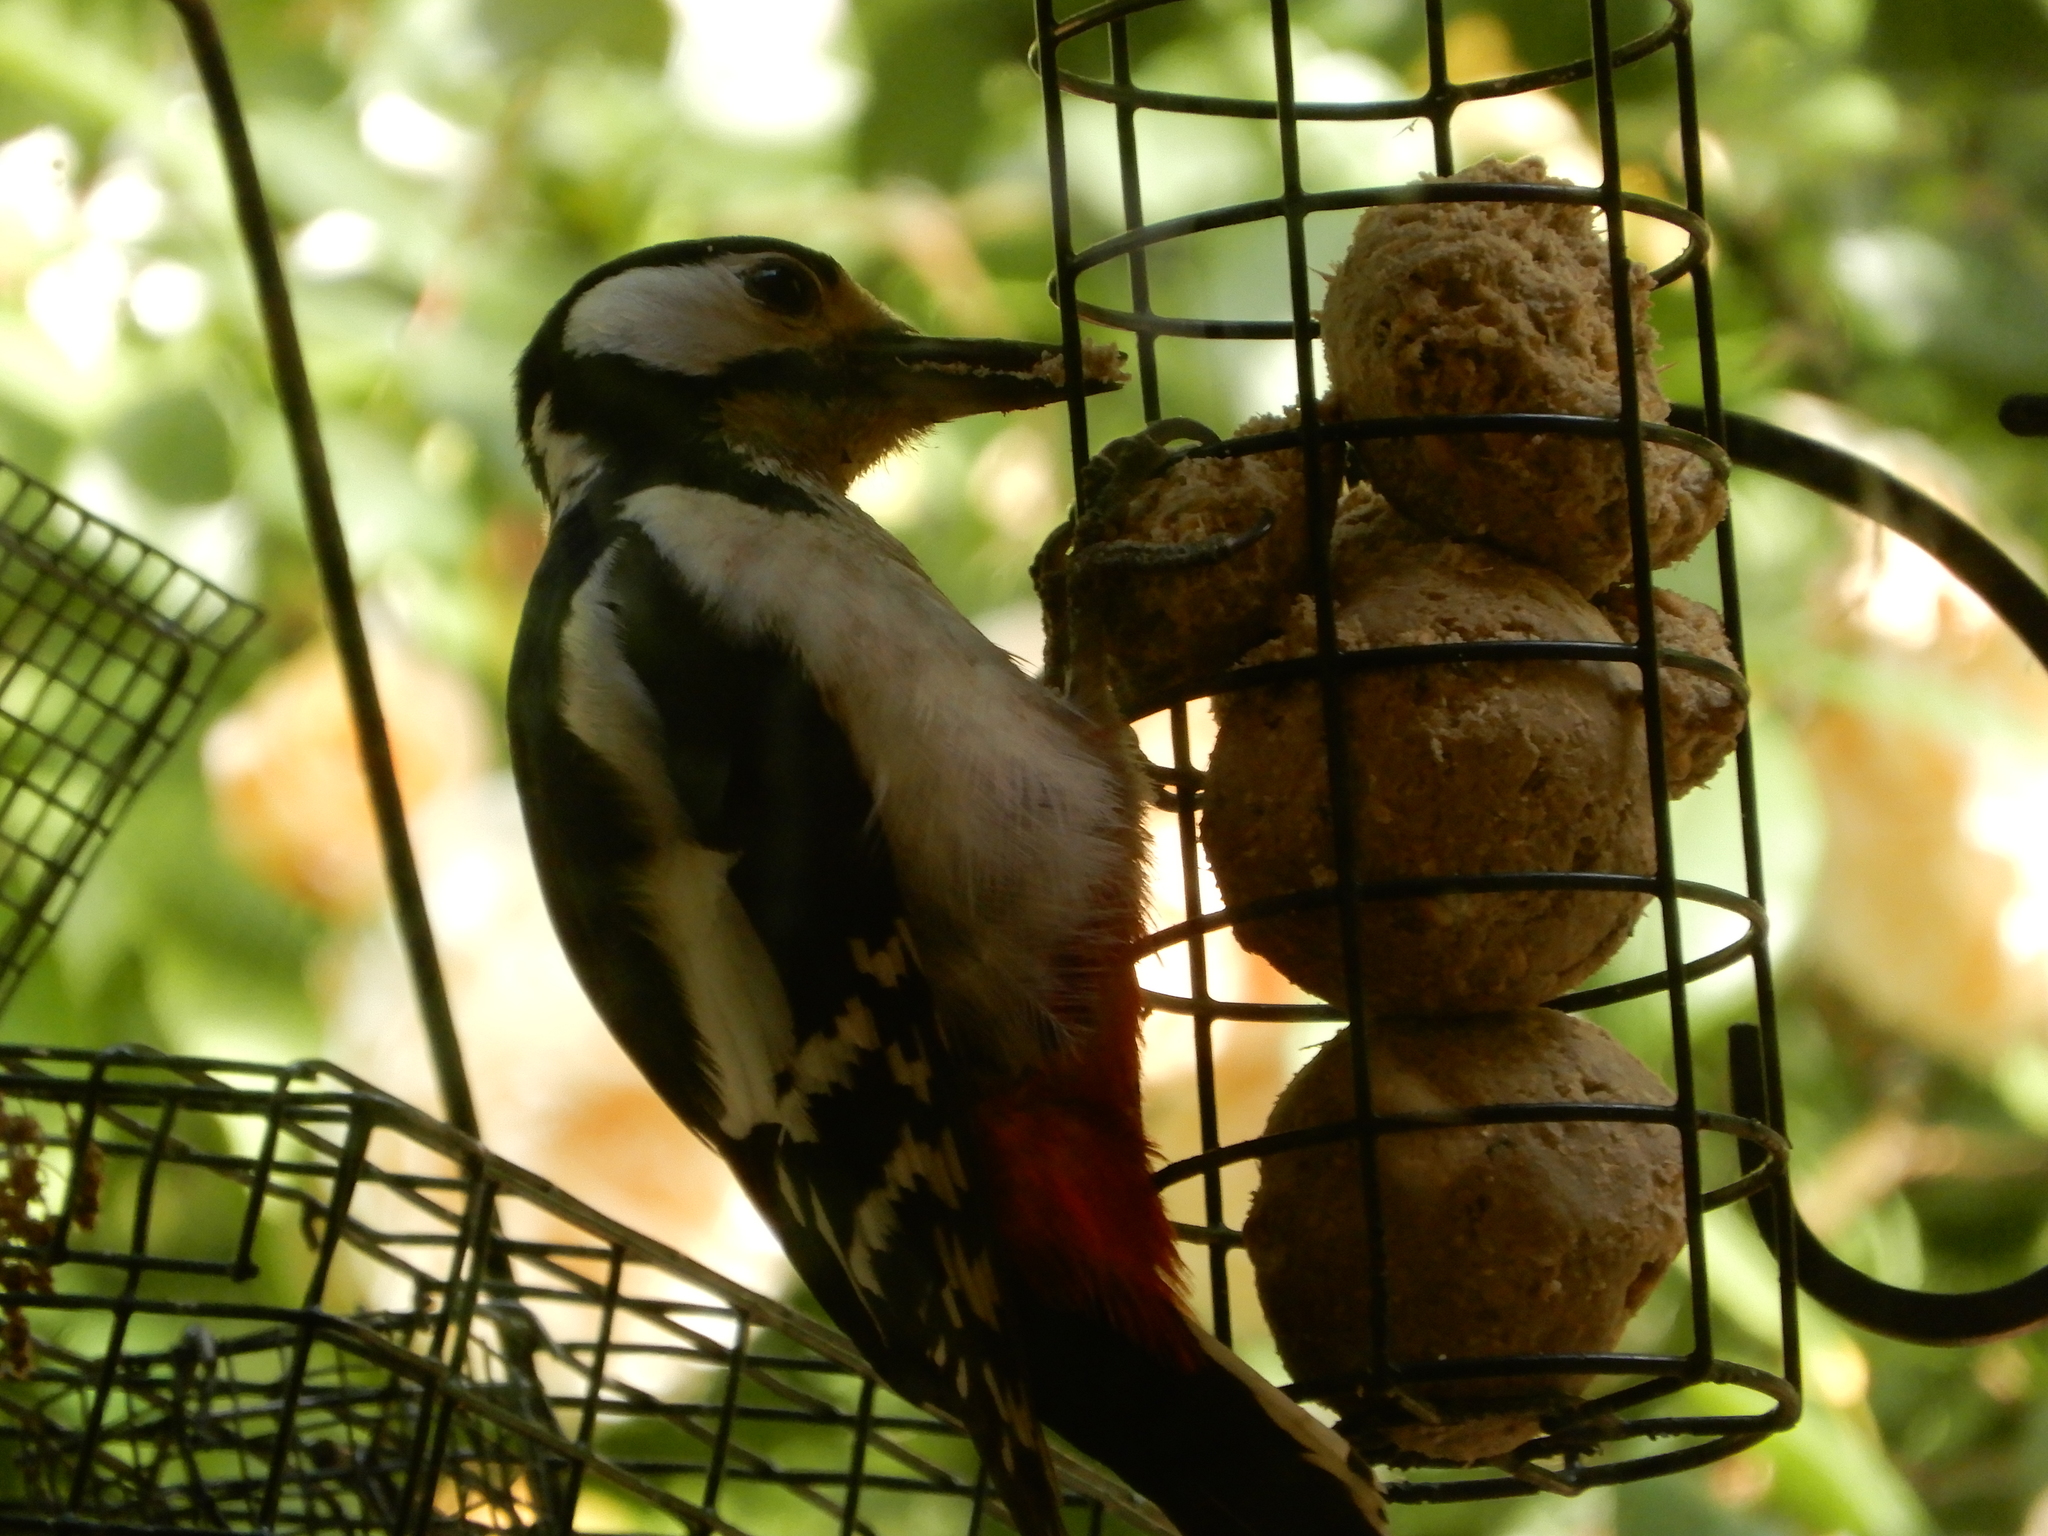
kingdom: Animalia
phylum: Chordata
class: Aves
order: Piciformes
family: Picidae
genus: Dendrocopos
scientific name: Dendrocopos major
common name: Great spotted woodpecker
